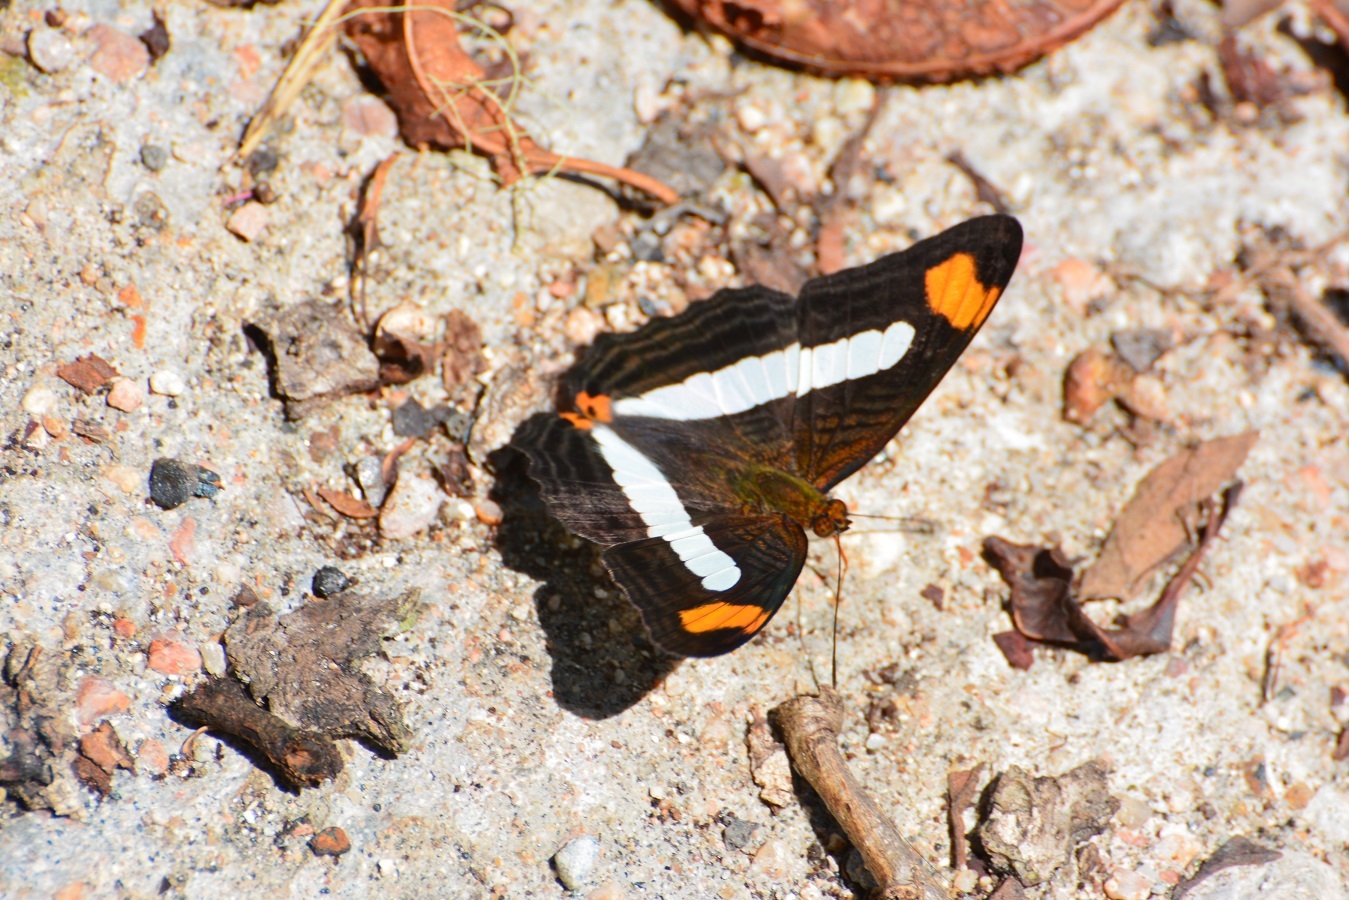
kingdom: Animalia
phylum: Arthropoda
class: Insecta
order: Lepidoptera
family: Nymphalidae
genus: Limenitis
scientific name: Limenitis iphiclus
